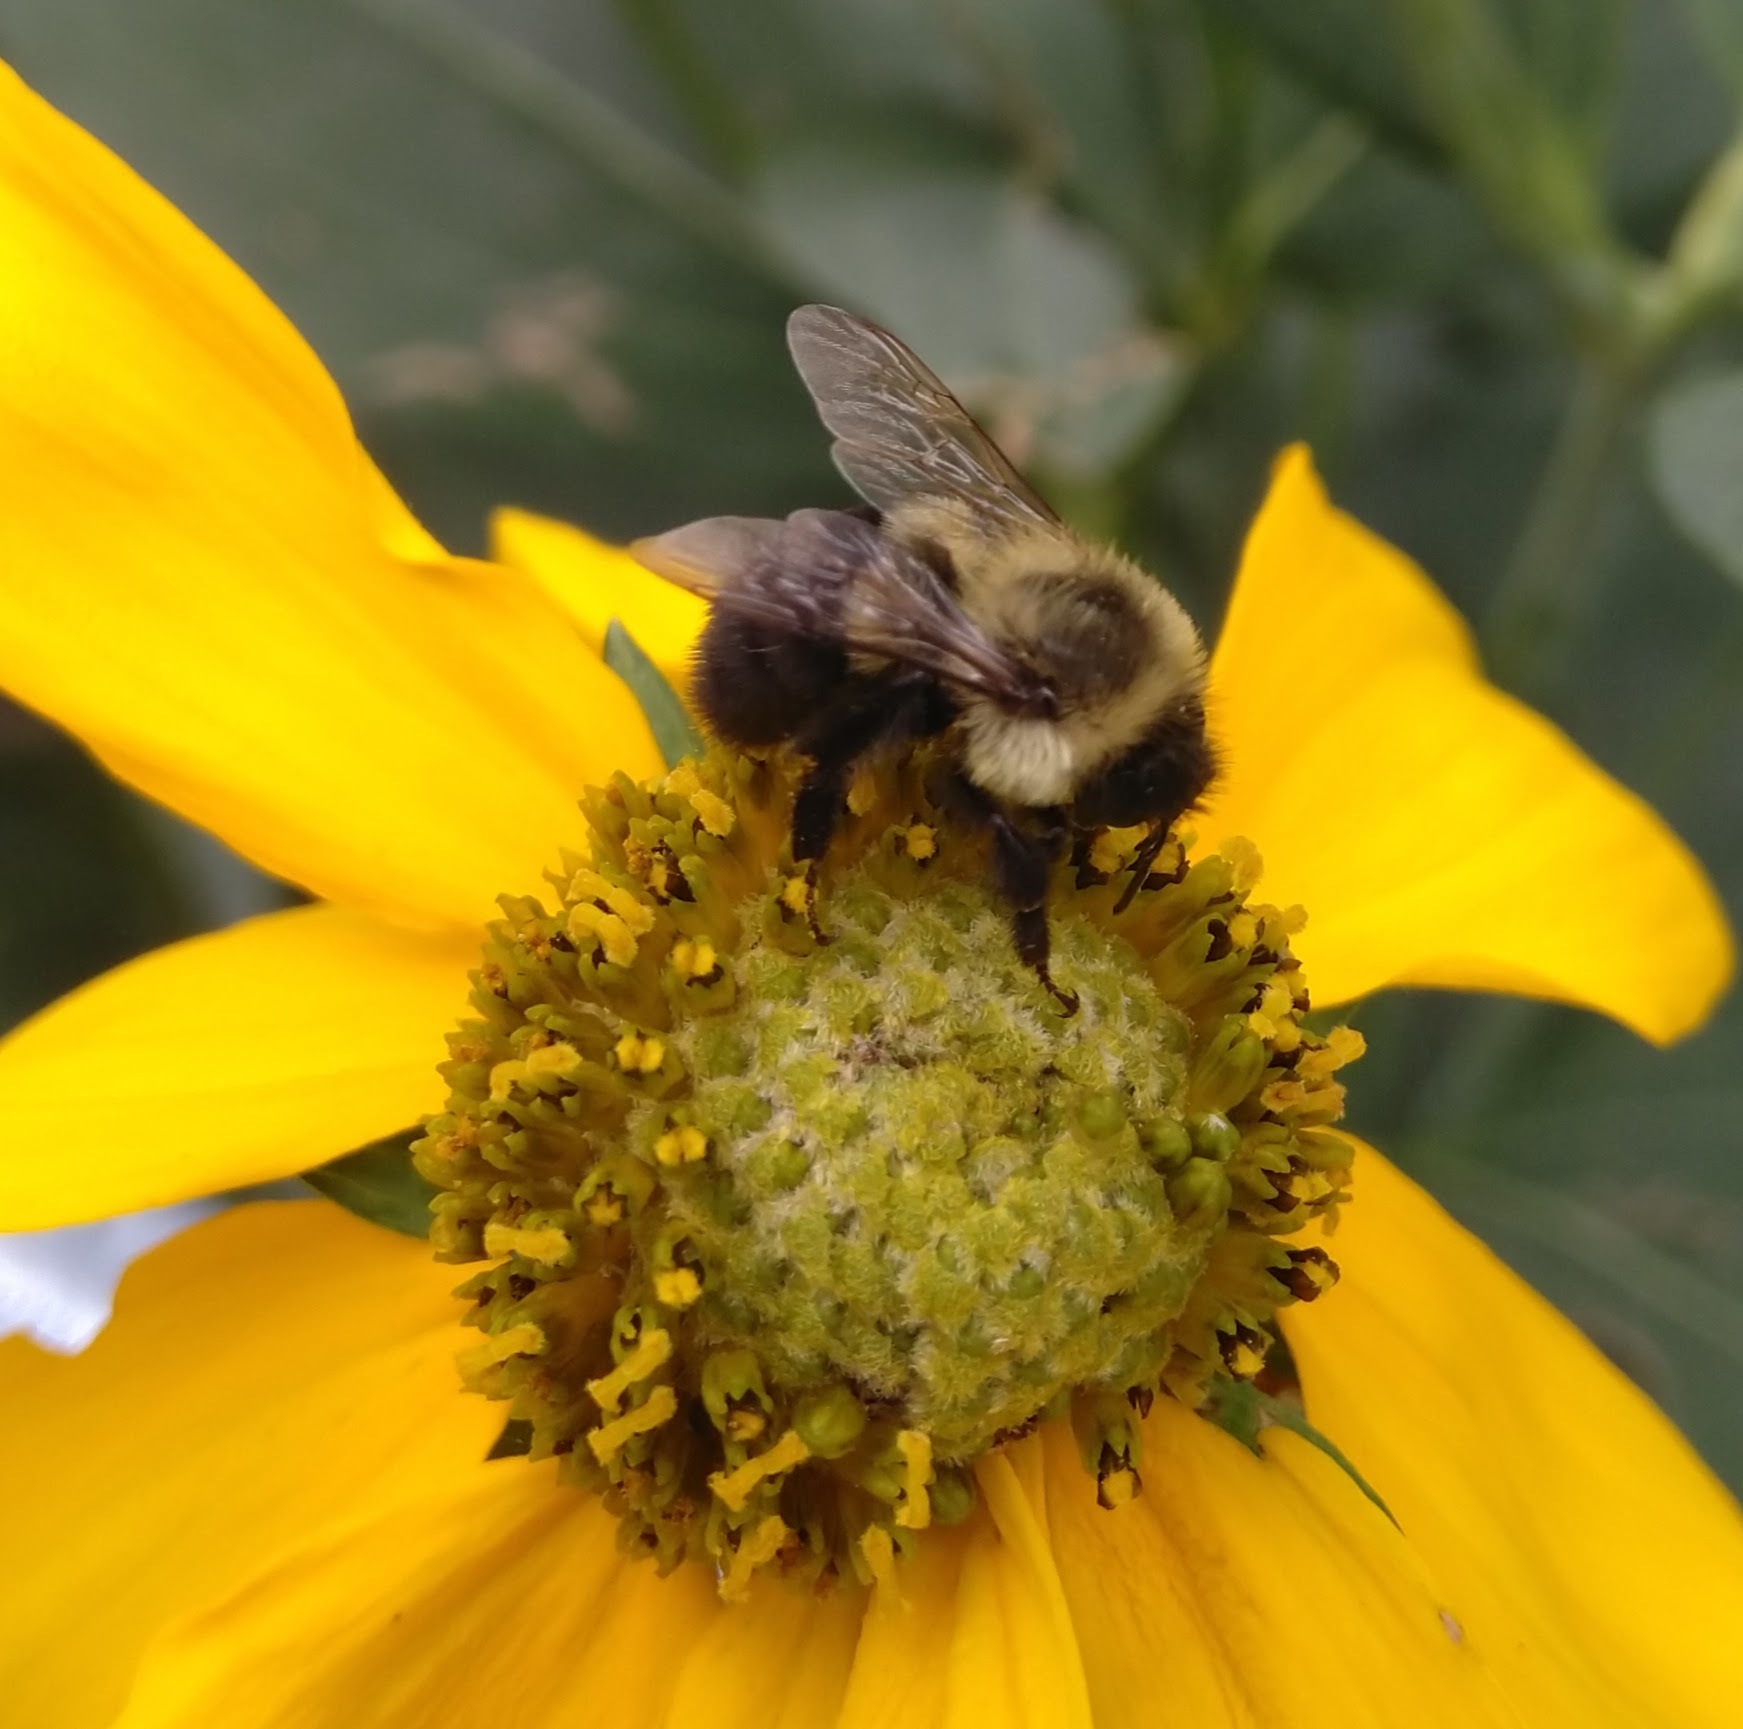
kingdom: Animalia
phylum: Arthropoda
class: Insecta
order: Hymenoptera
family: Apidae
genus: Bombus
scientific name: Bombus impatiens
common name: Common eastern bumble bee
